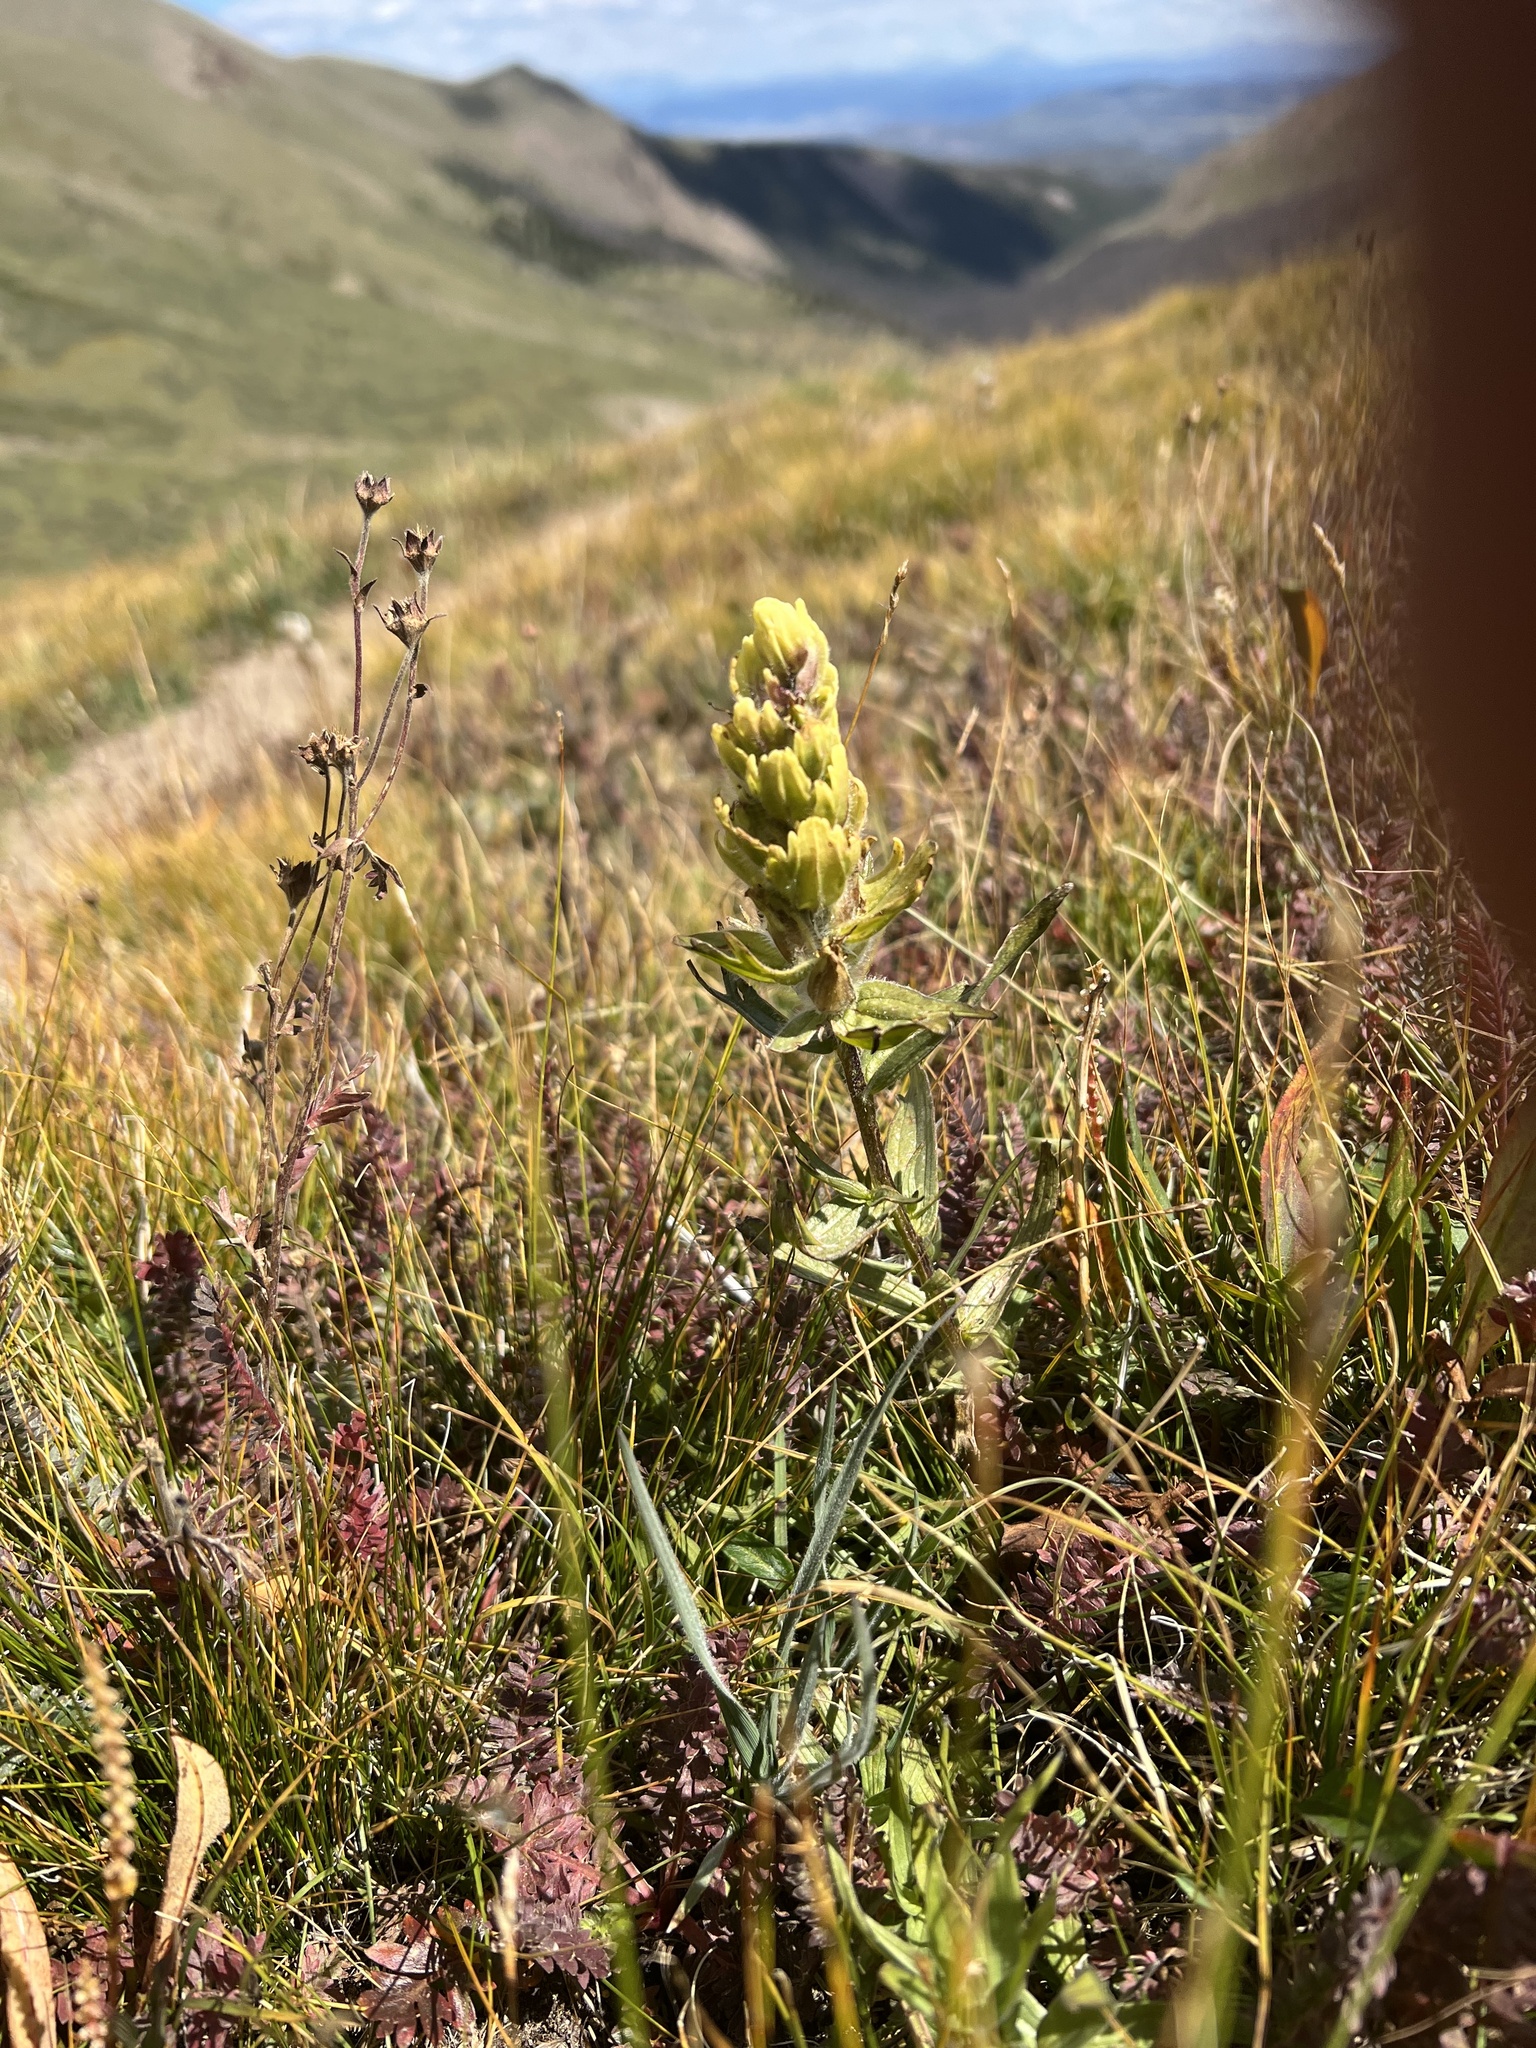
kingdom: Plantae
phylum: Tracheophyta
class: Magnoliopsida
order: Lamiales
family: Orobanchaceae
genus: Castilleja
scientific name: Castilleja occidentalis
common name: Western paintbrush
